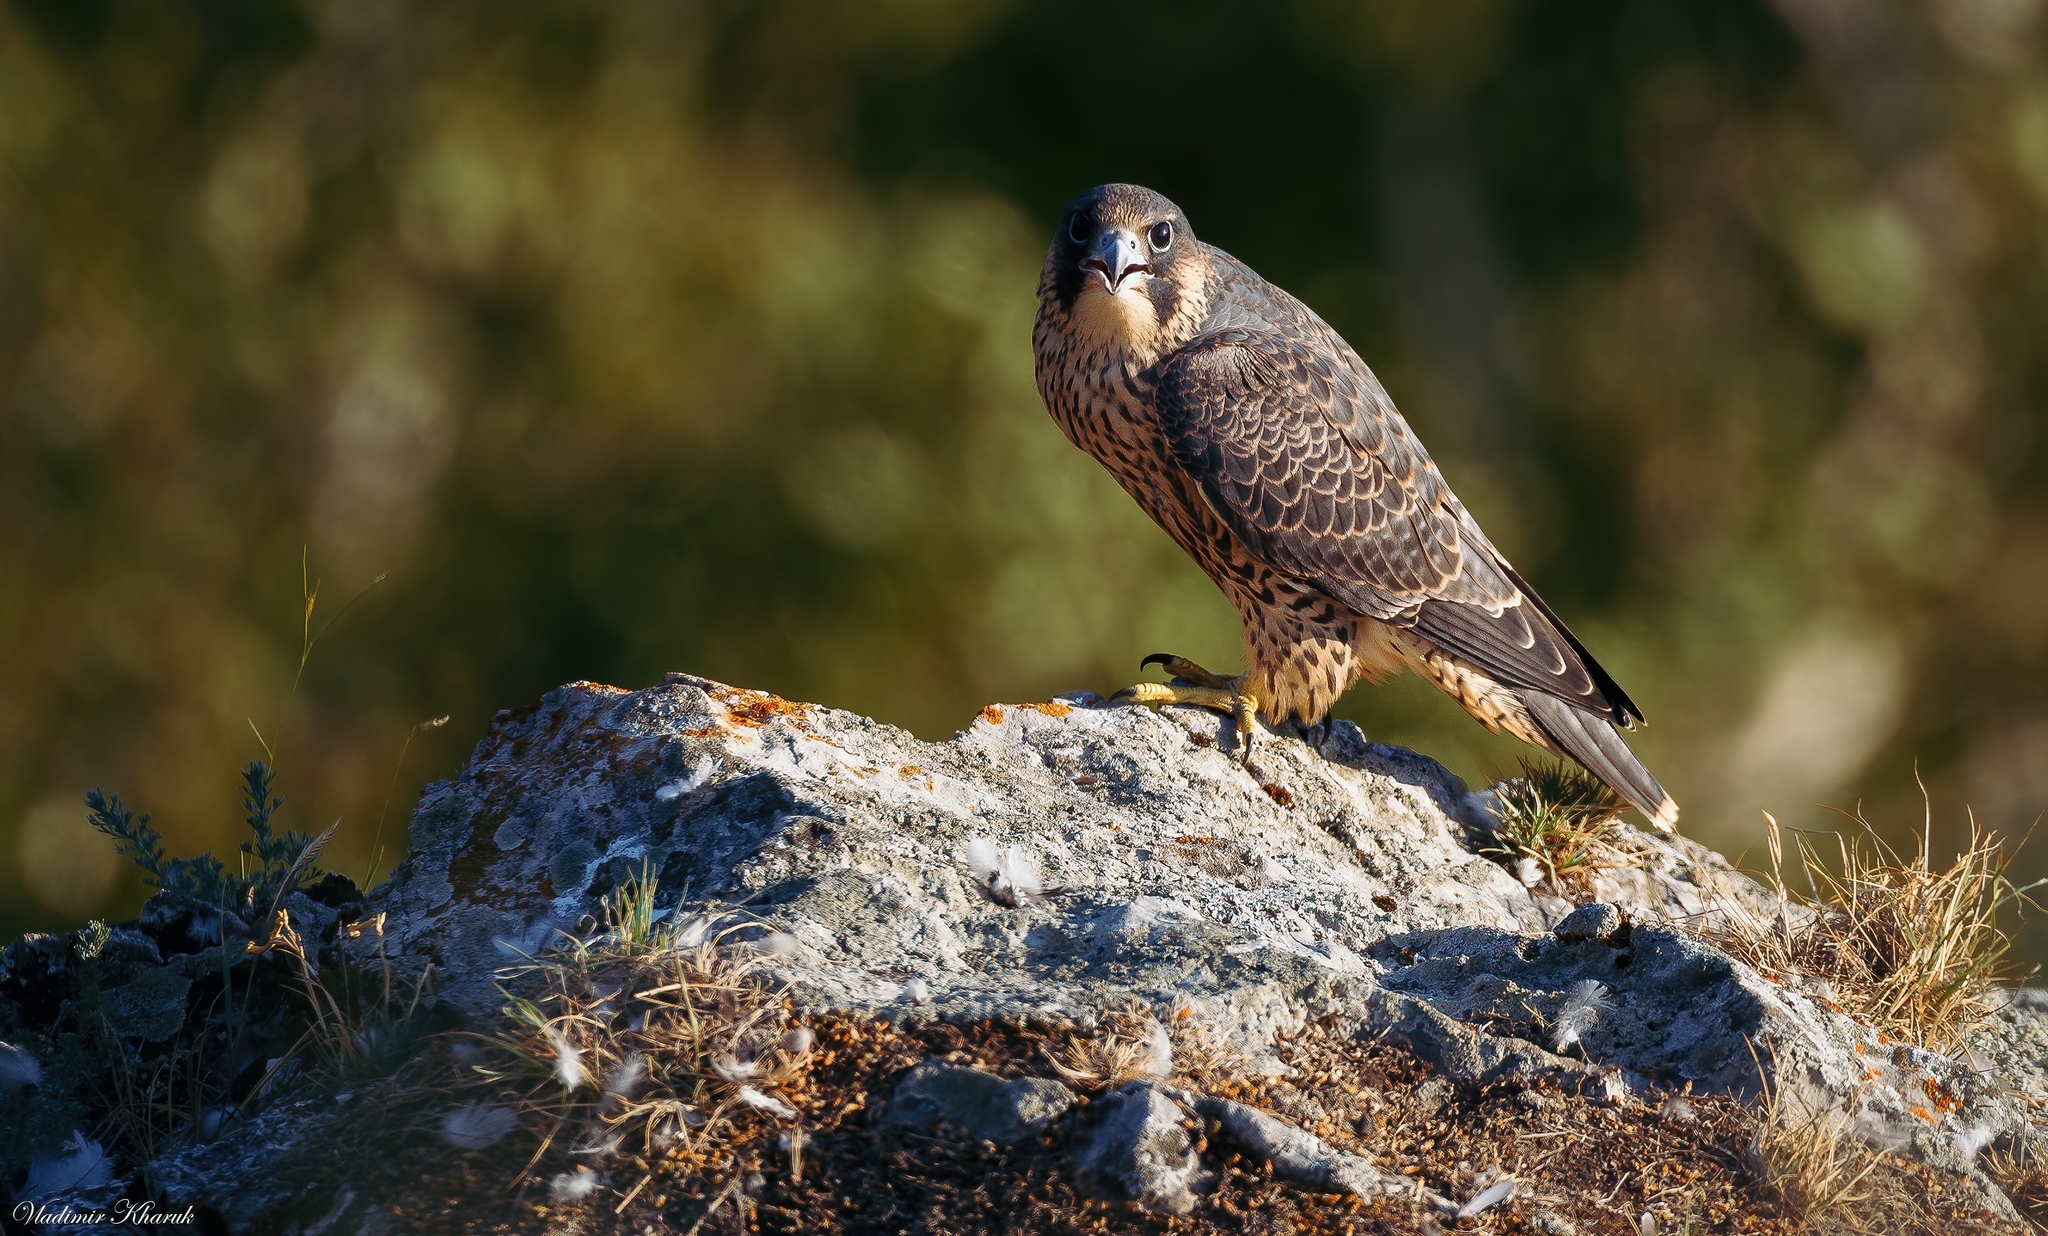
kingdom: Animalia
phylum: Chordata
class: Aves
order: Falconiformes
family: Falconidae
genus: Falco
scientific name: Falco peregrinus
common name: Peregrine falcon
